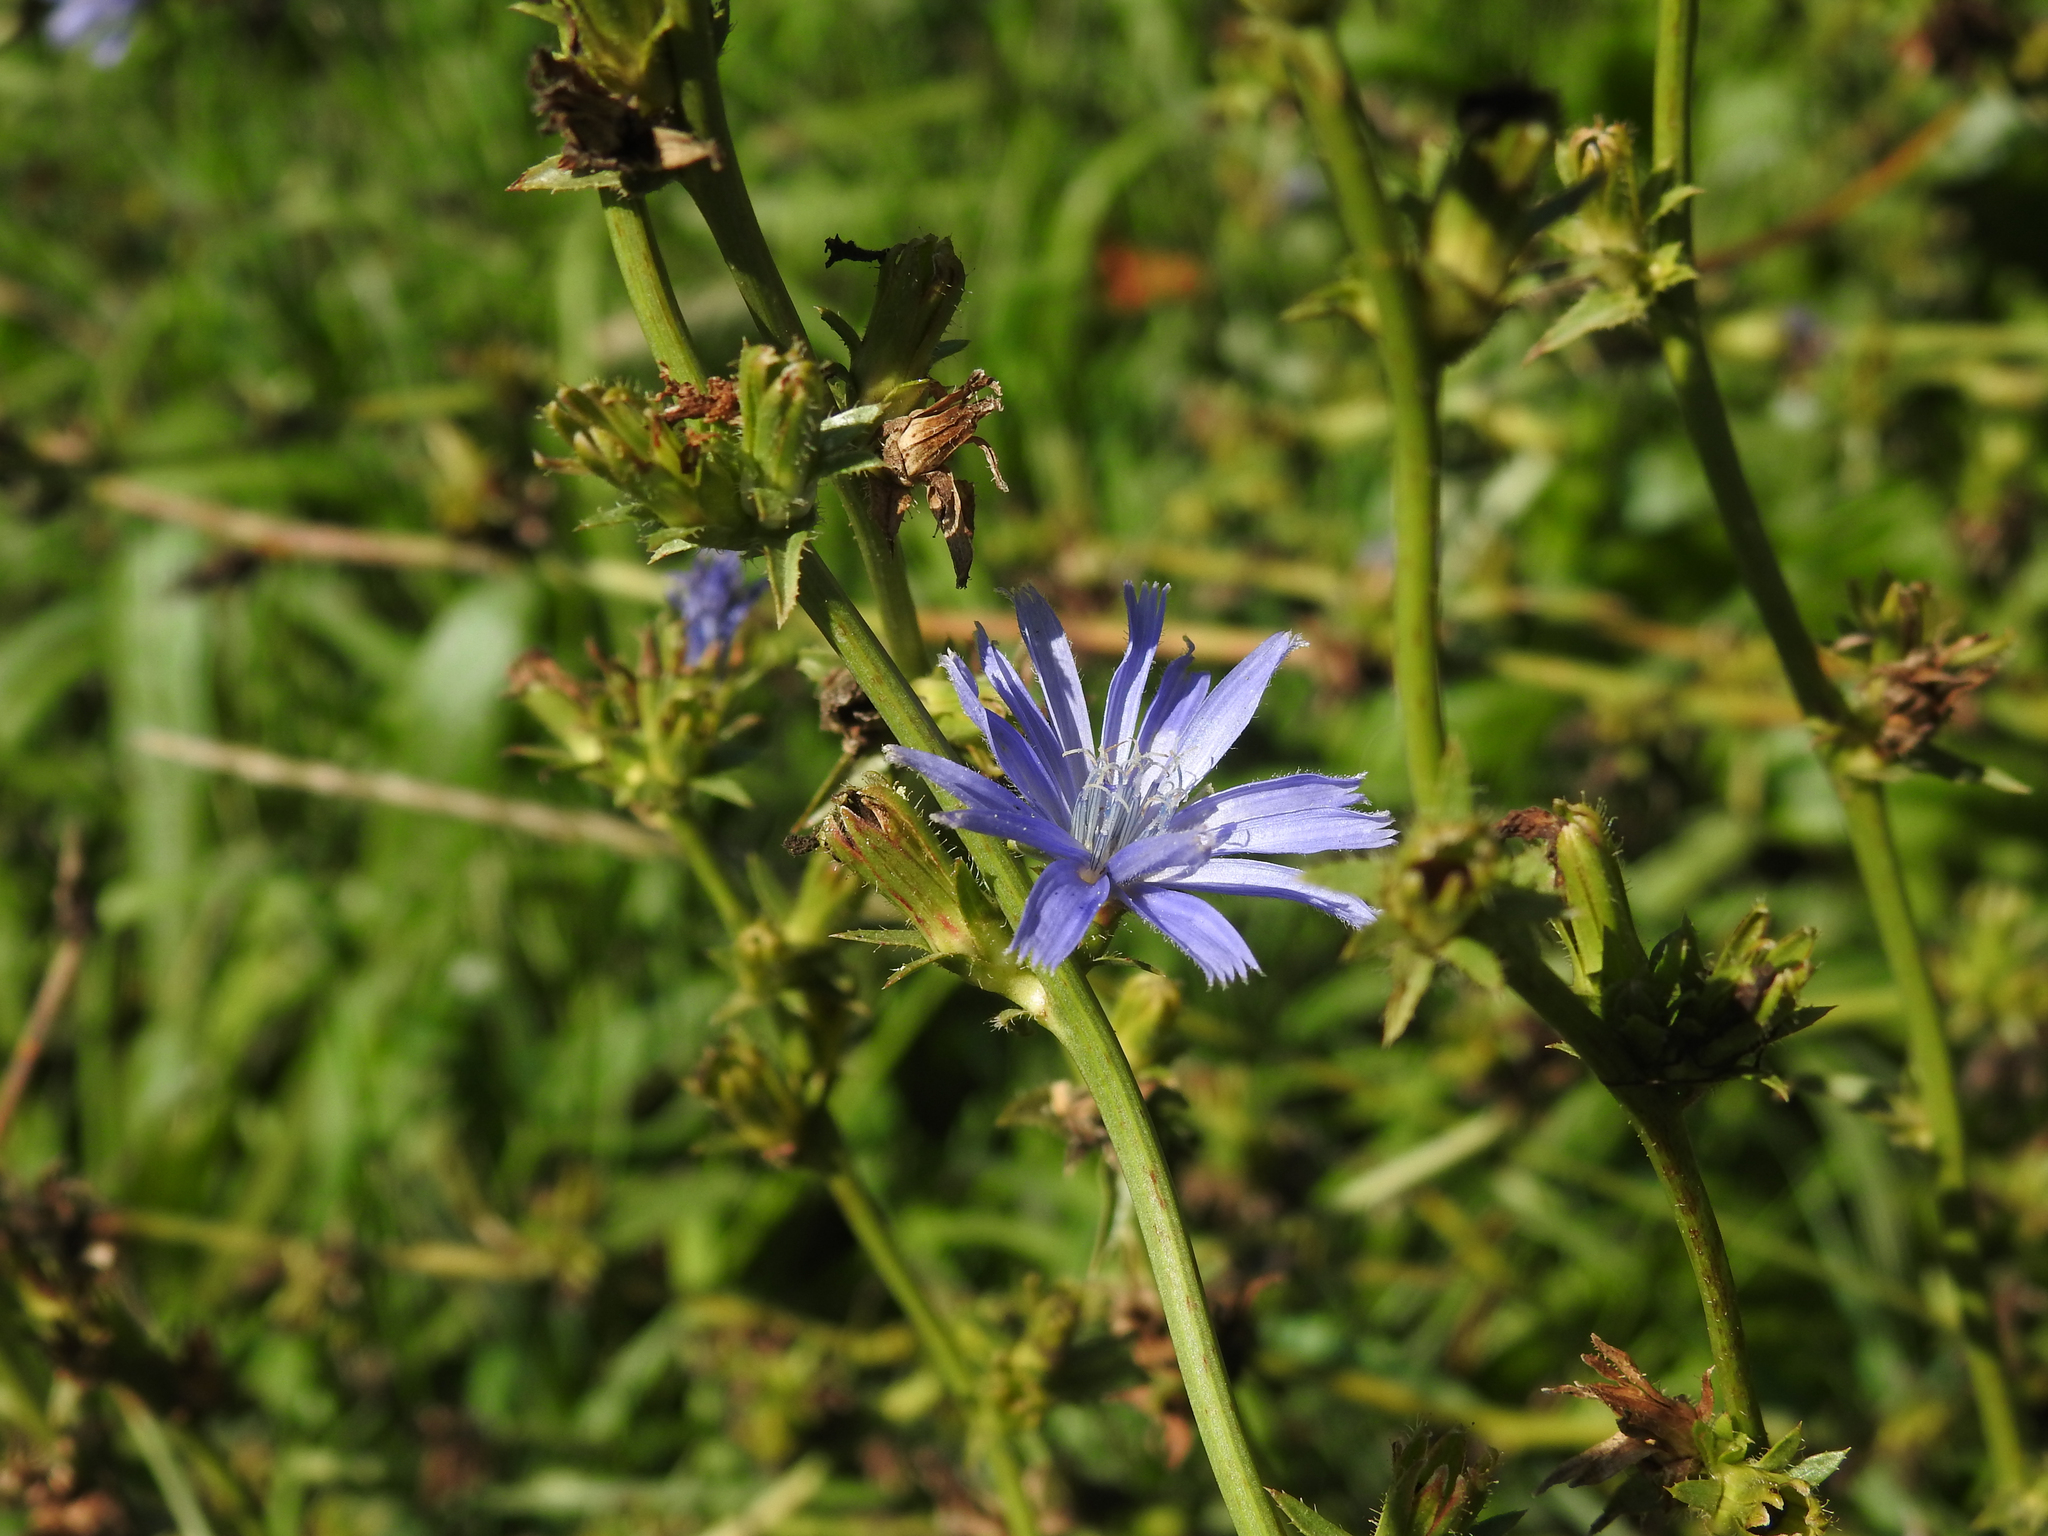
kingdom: Plantae
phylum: Tracheophyta
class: Magnoliopsida
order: Asterales
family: Asteraceae
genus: Cichorium
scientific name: Cichorium intybus
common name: Chicory
